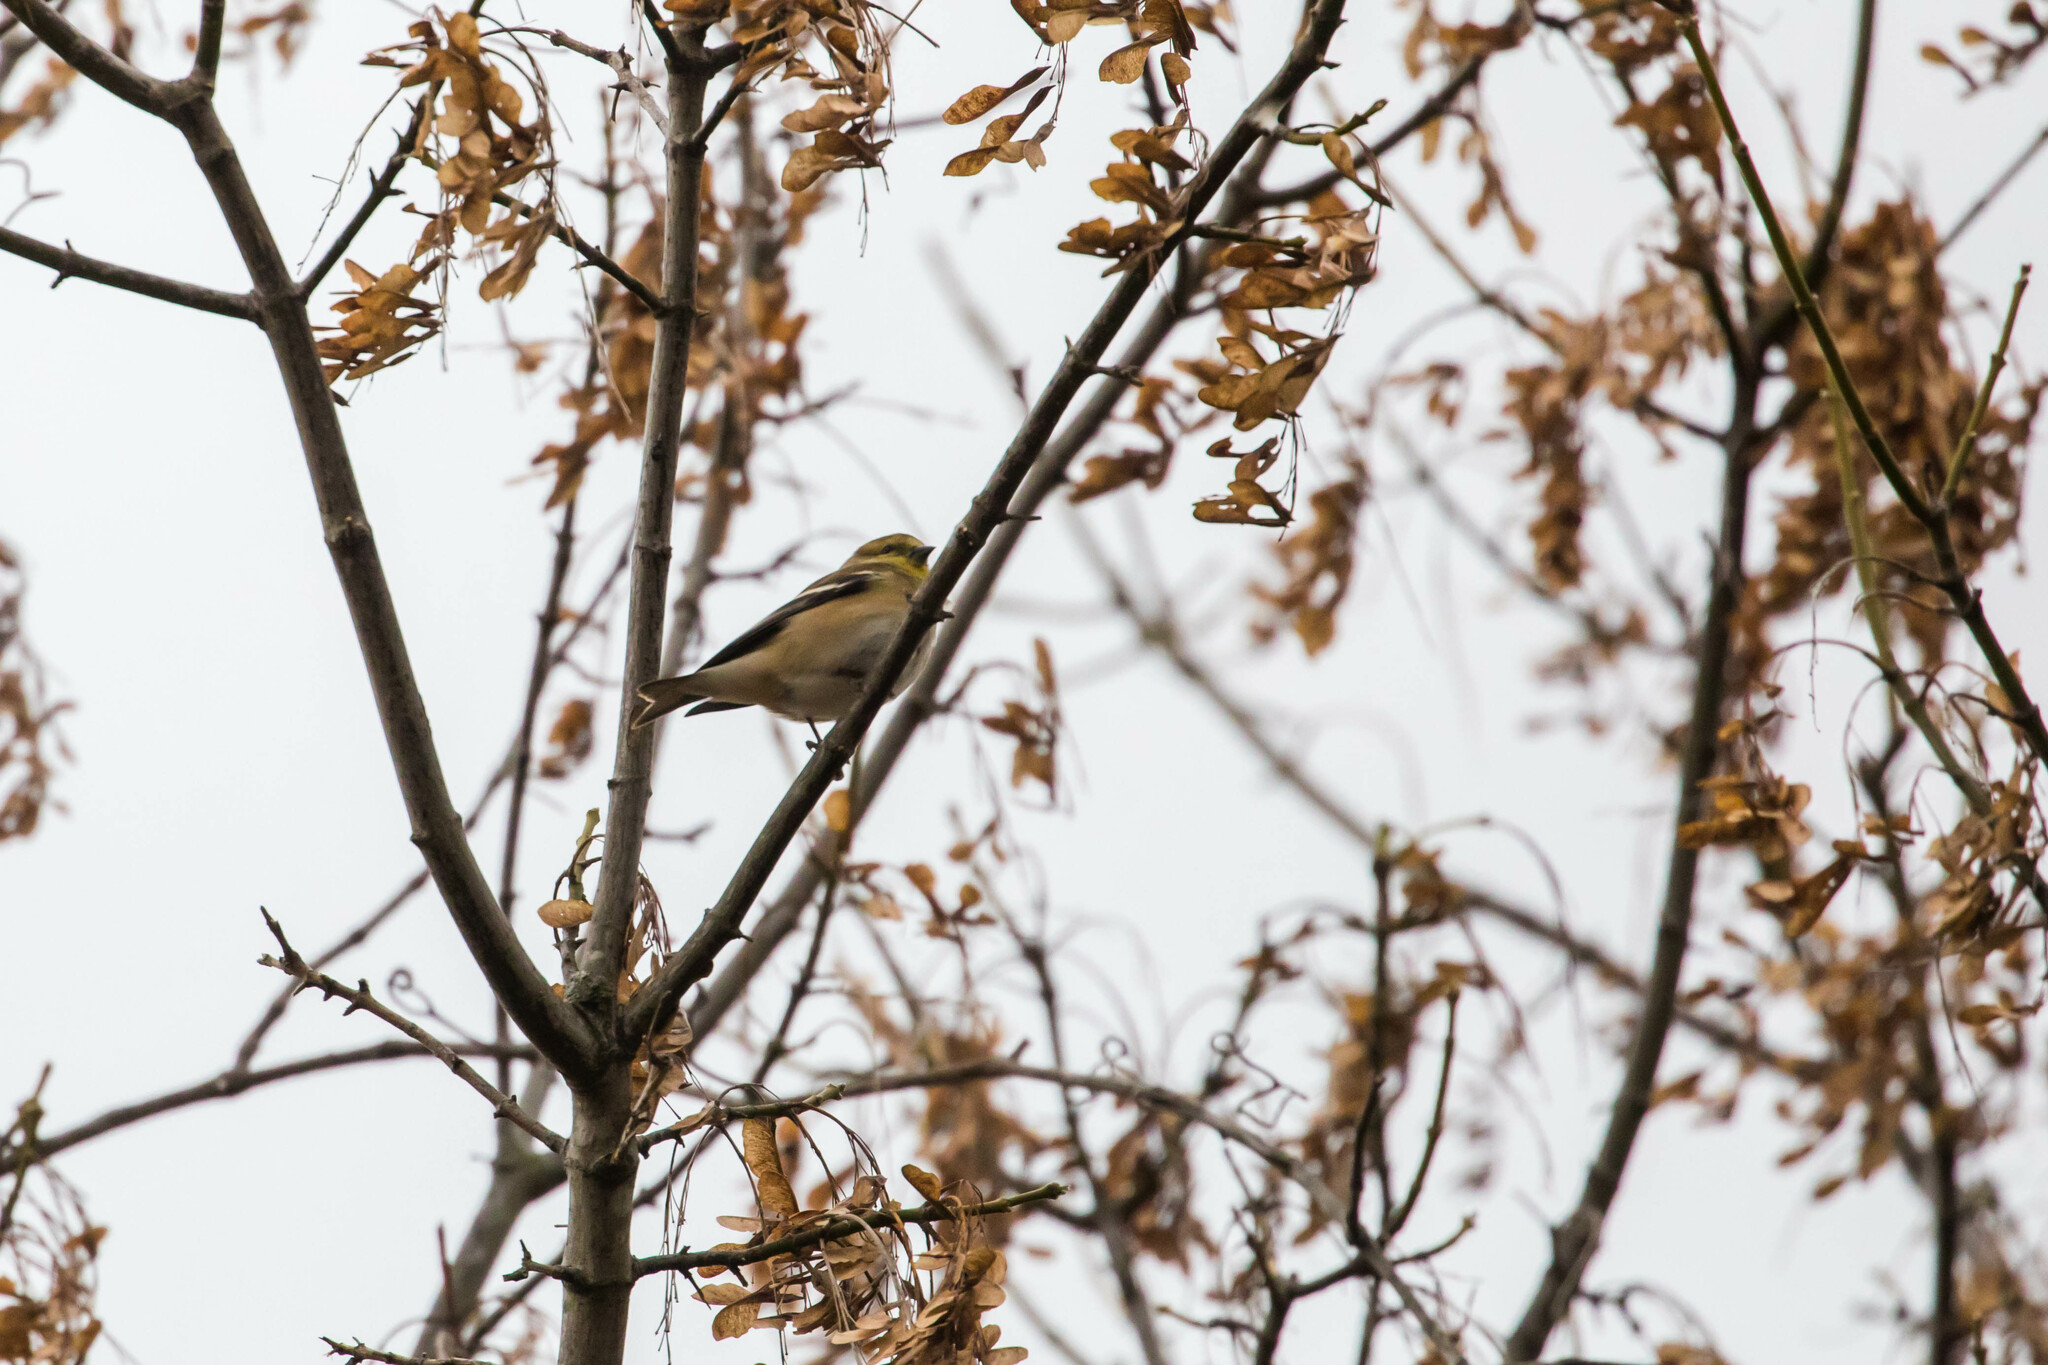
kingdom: Animalia
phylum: Chordata
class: Aves
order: Passeriformes
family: Fringillidae
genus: Spinus
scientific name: Spinus tristis
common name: American goldfinch
